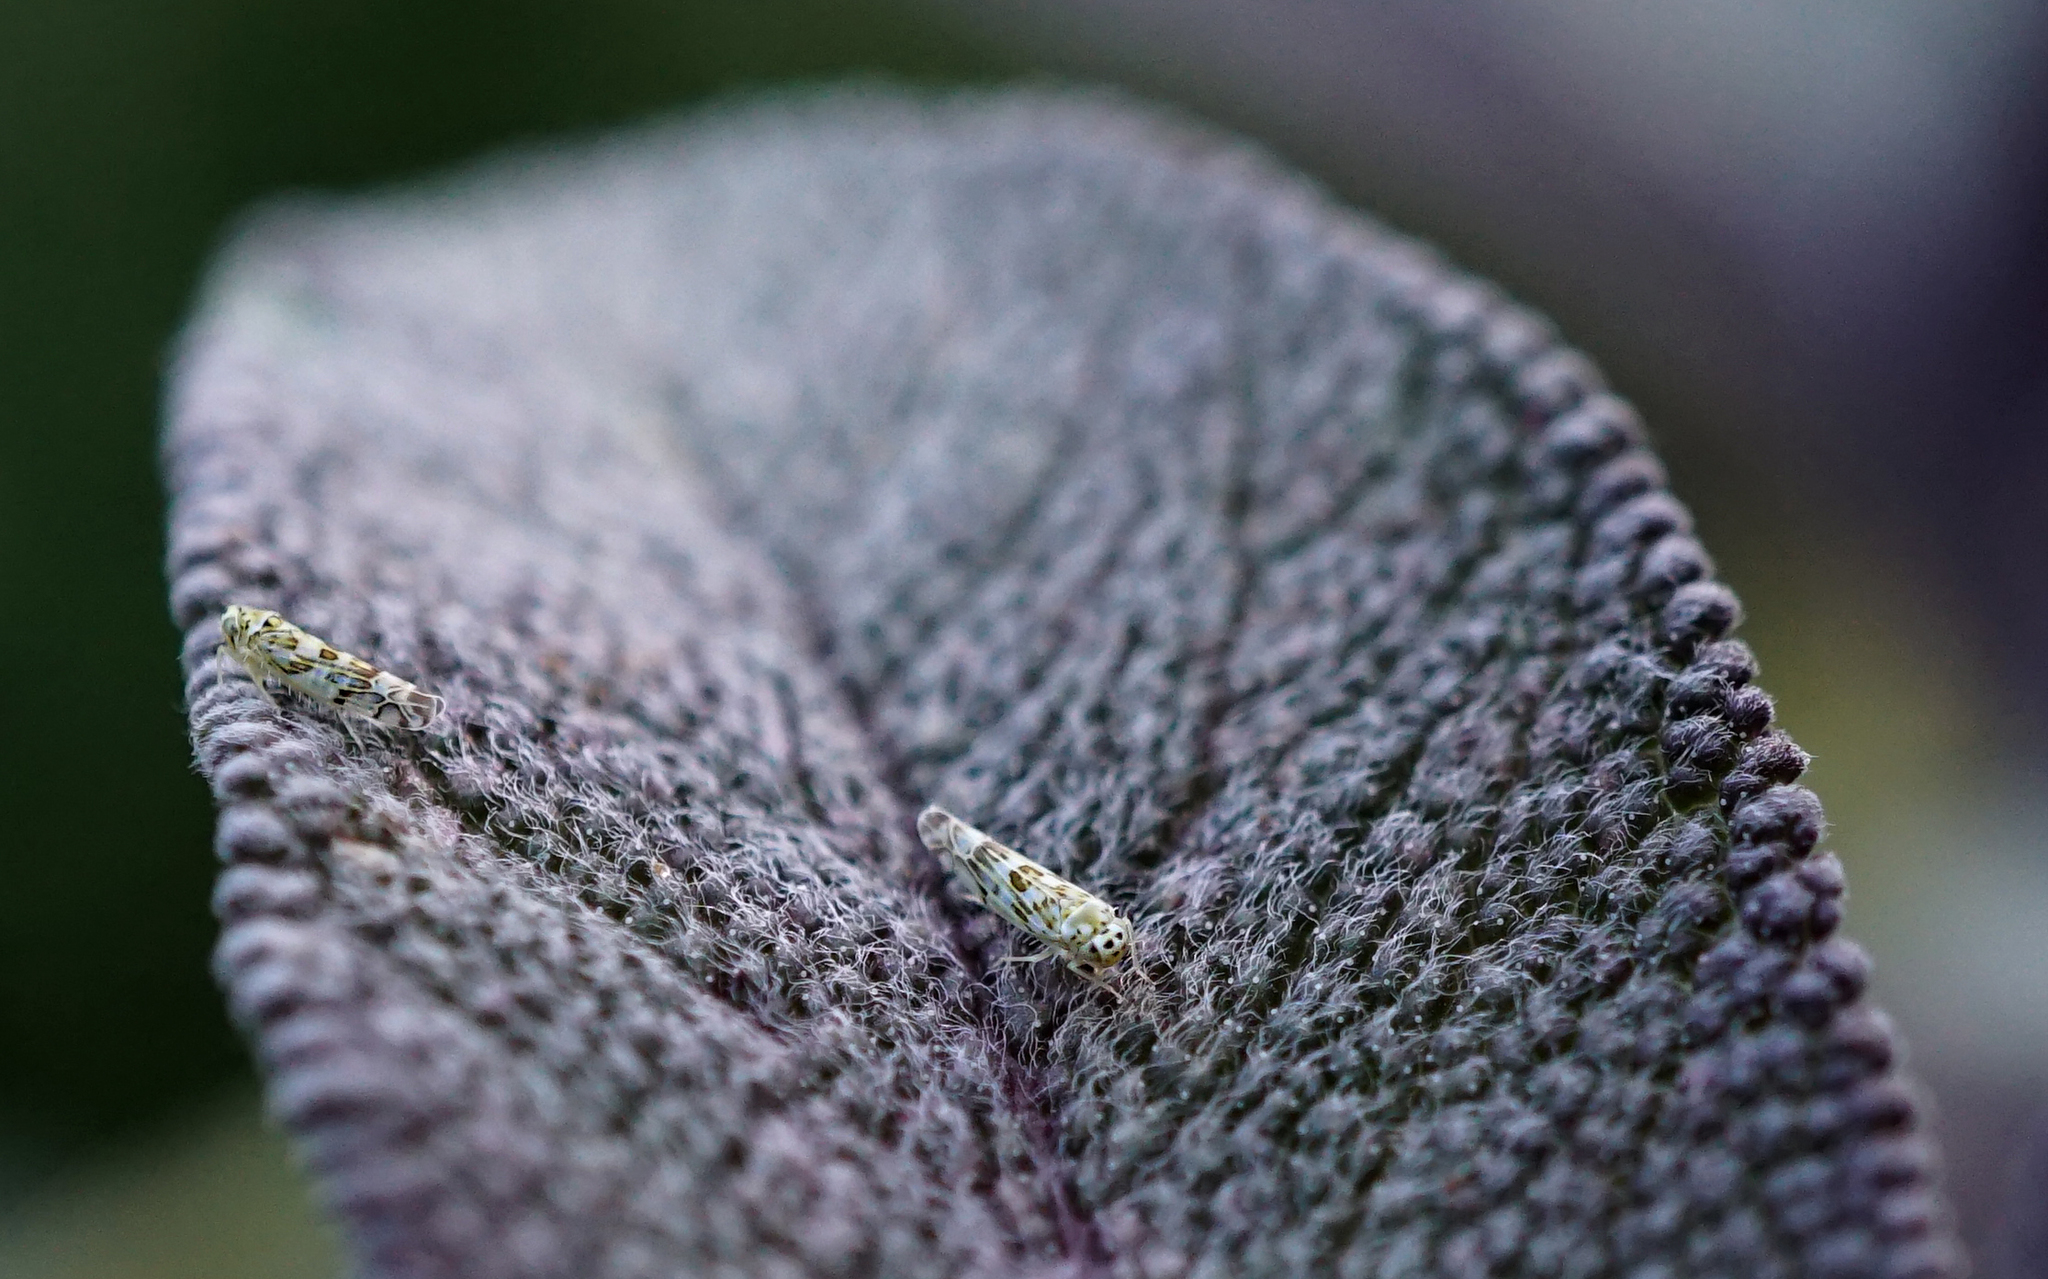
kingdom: Animalia
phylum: Arthropoda
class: Insecta
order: Hemiptera
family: Cicadellidae
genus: Eupteryx
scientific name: Eupteryx melissae
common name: Herb leafhopper
